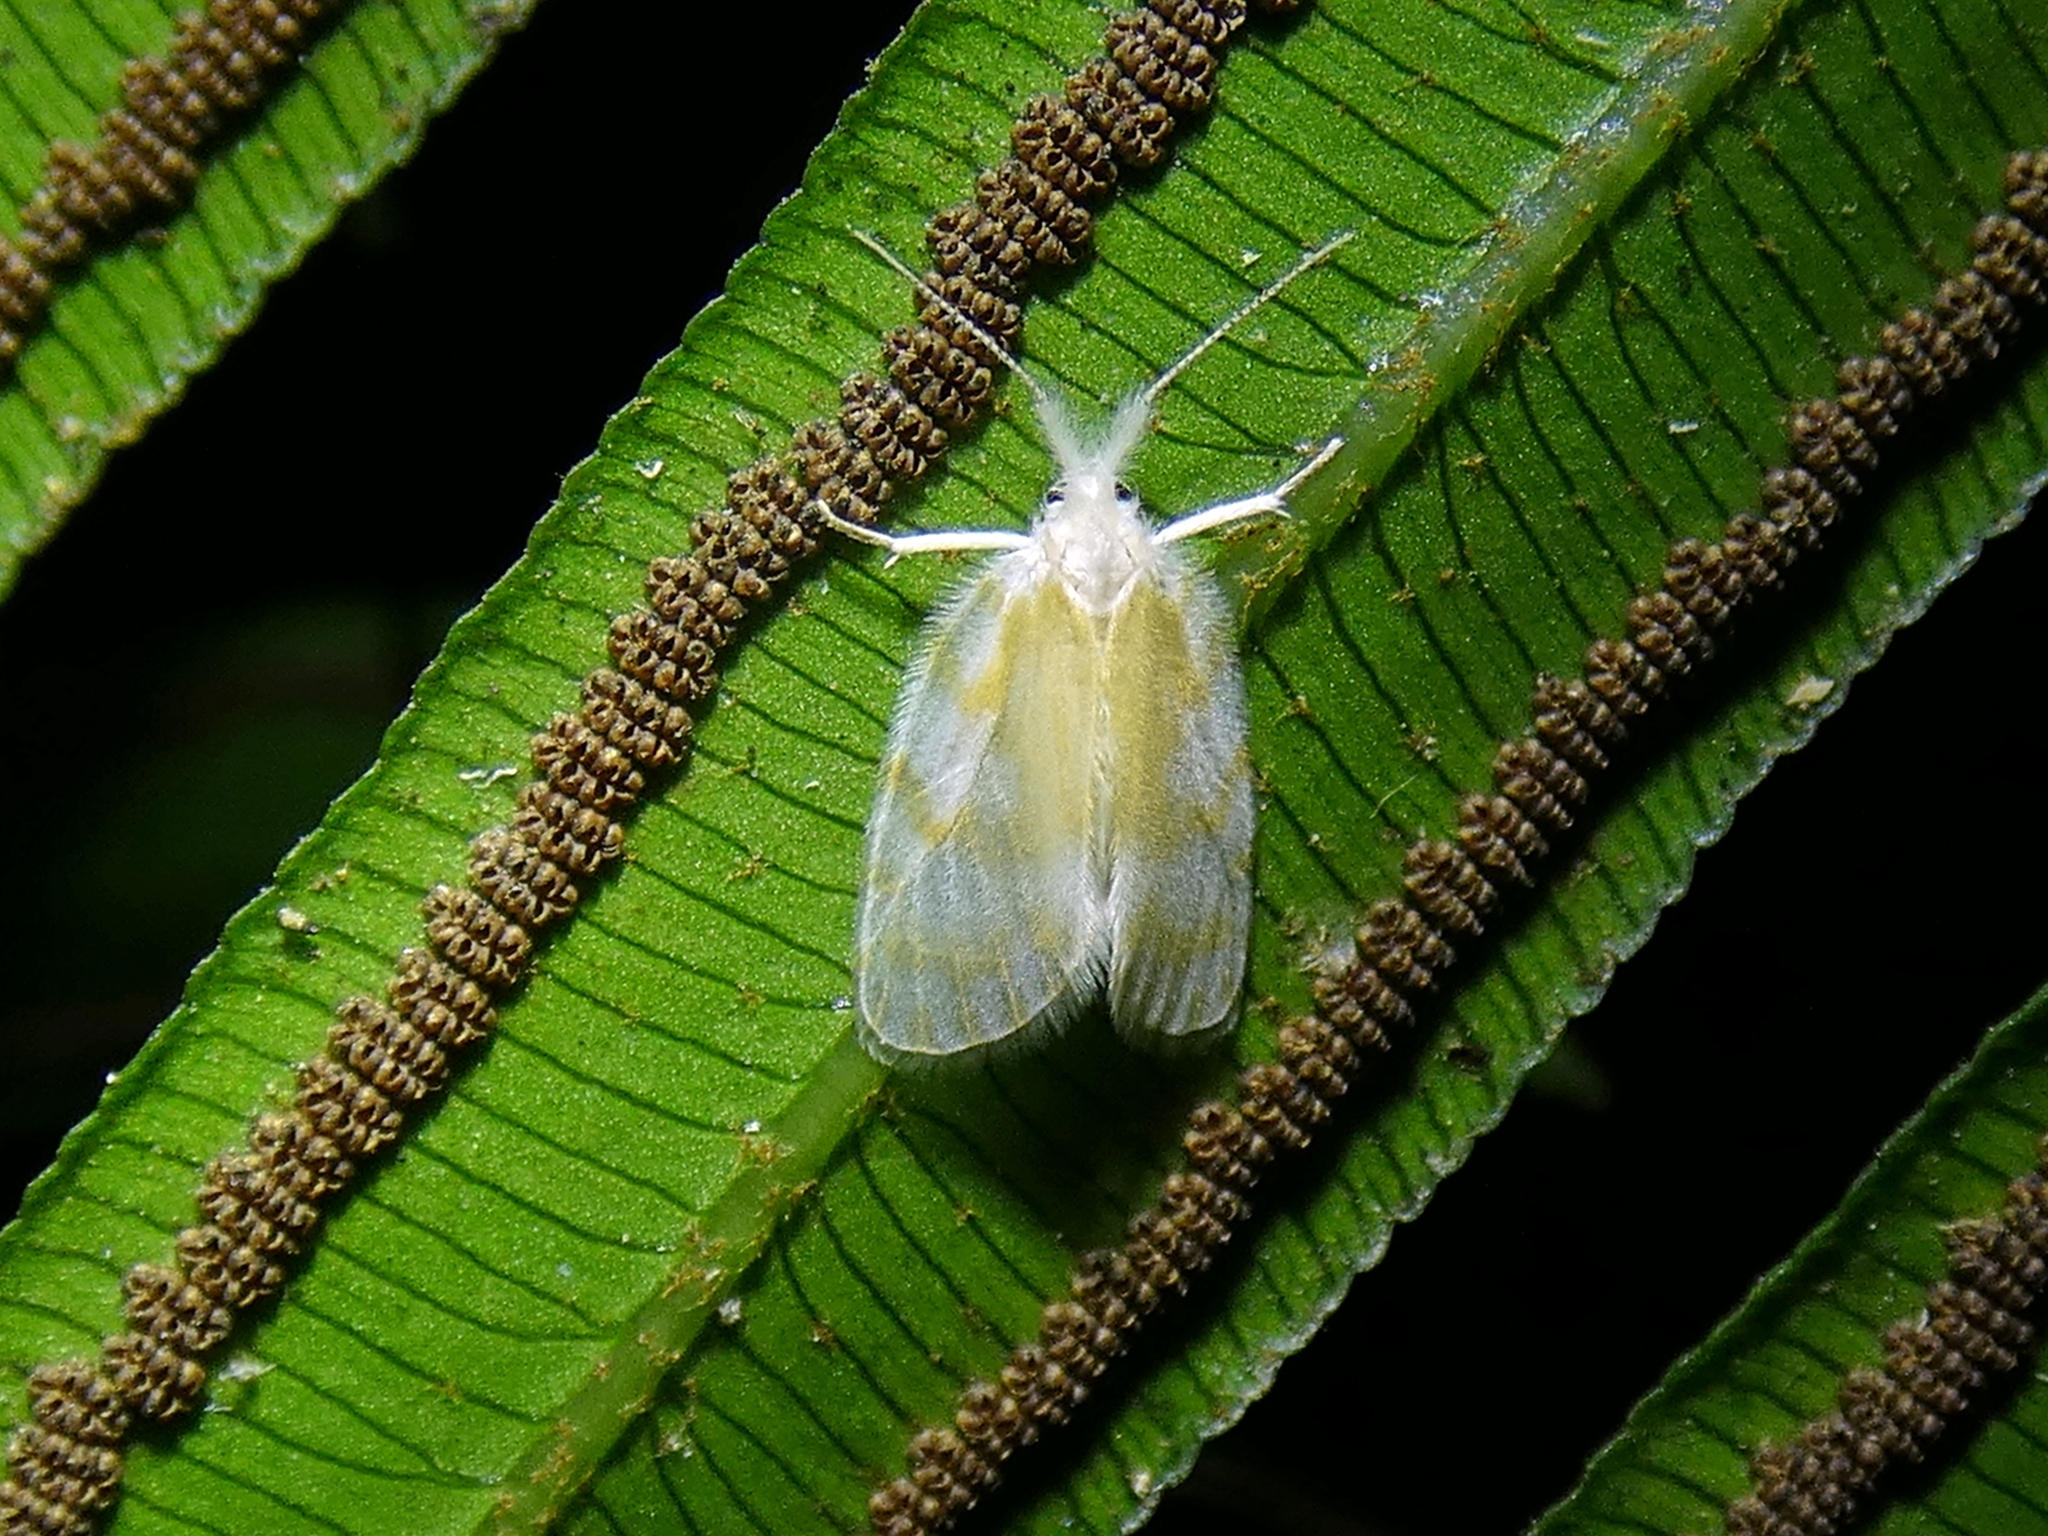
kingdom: Animalia
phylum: Arthropoda
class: Insecta
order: Lepidoptera
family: Erebidae
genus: Chamaita
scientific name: Chamaita barnardi
